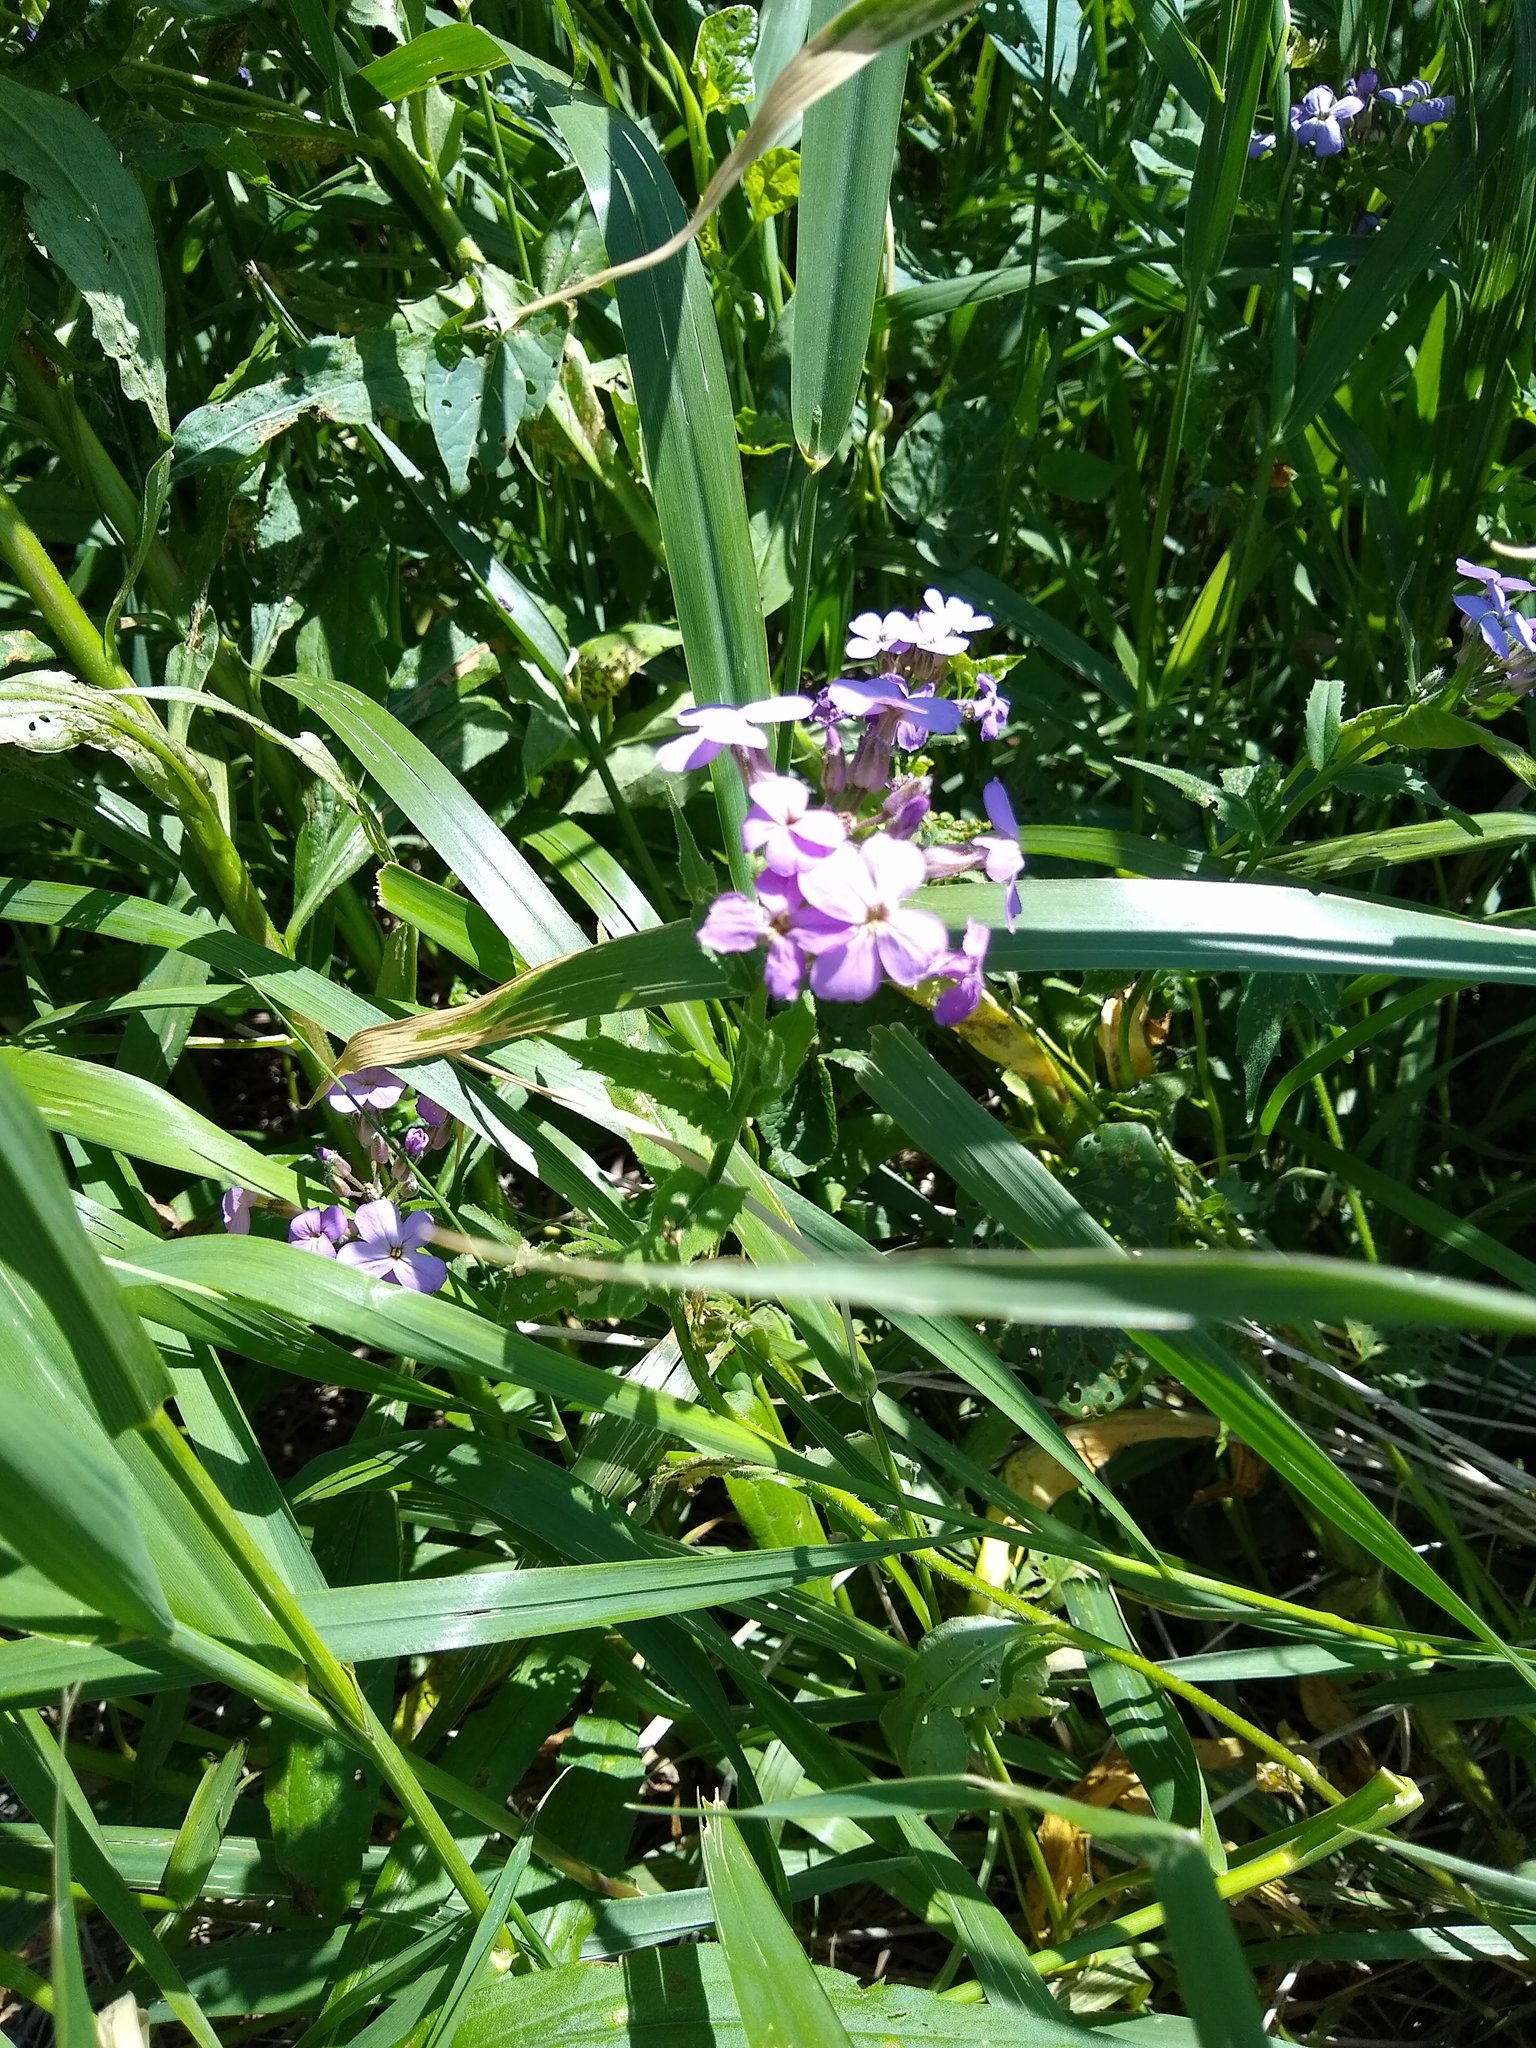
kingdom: Plantae
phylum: Tracheophyta
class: Magnoliopsida
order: Brassicales
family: Brassicaceae
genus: Hesperis
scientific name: Hesperis matronalis
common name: Dame's-violet
